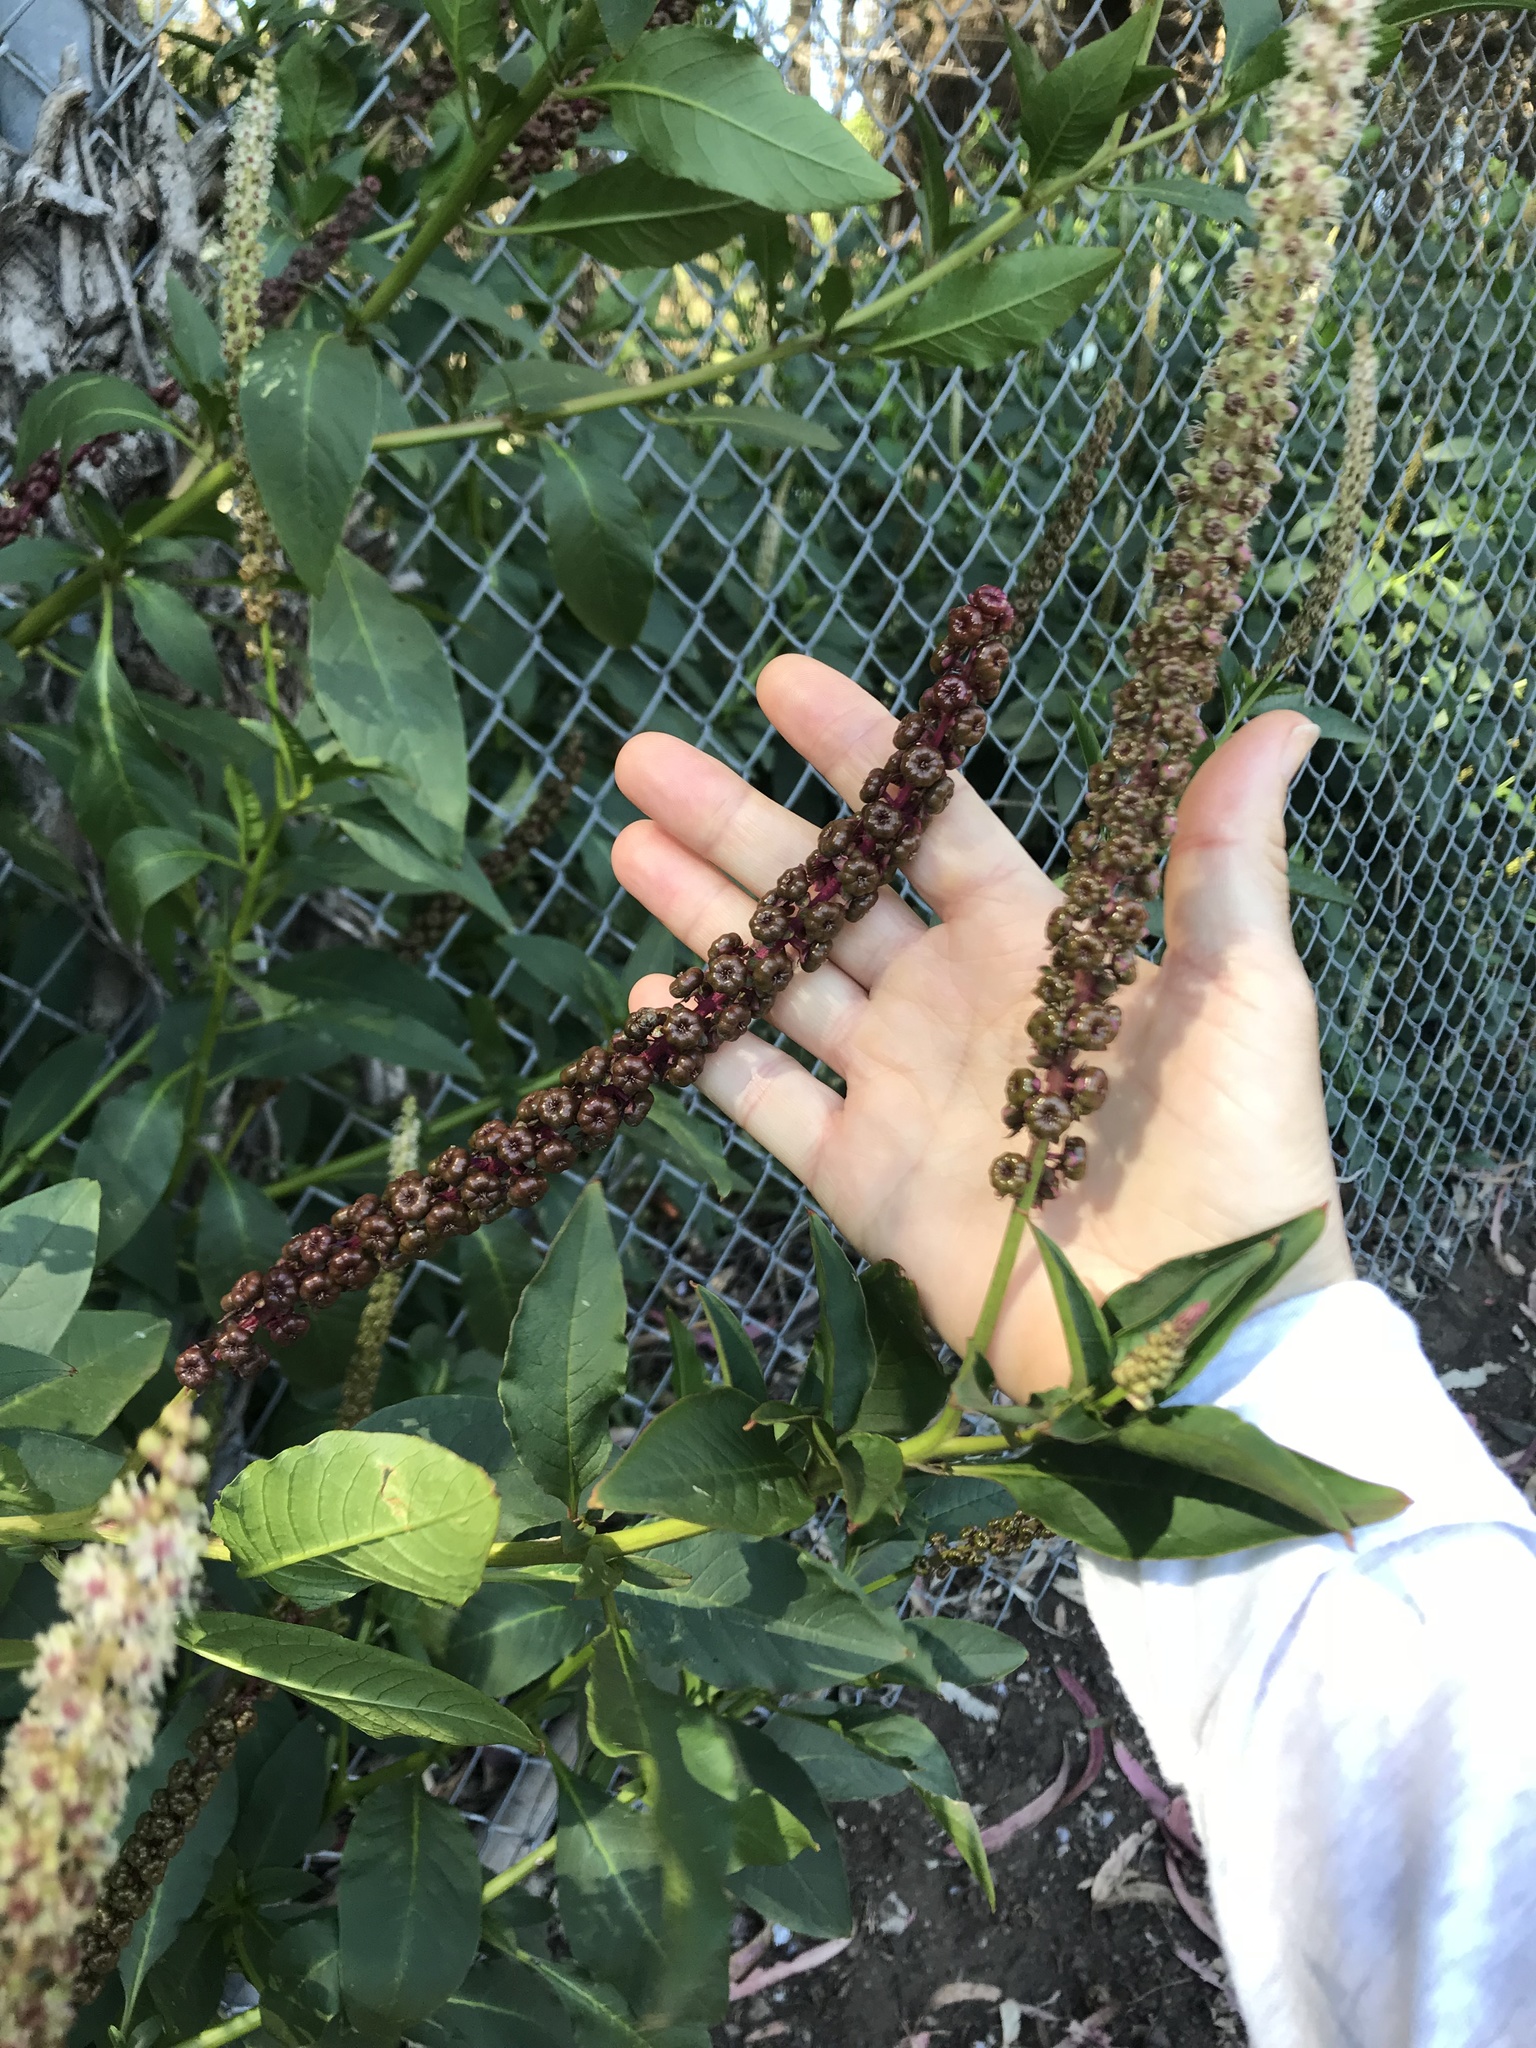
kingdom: Plantae
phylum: Tracheophyta
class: Magnoliopsida
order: Caryophyllales
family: Phytolaccaceae
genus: Phytolacca
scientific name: Phytolacca americana
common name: American pokeweed
